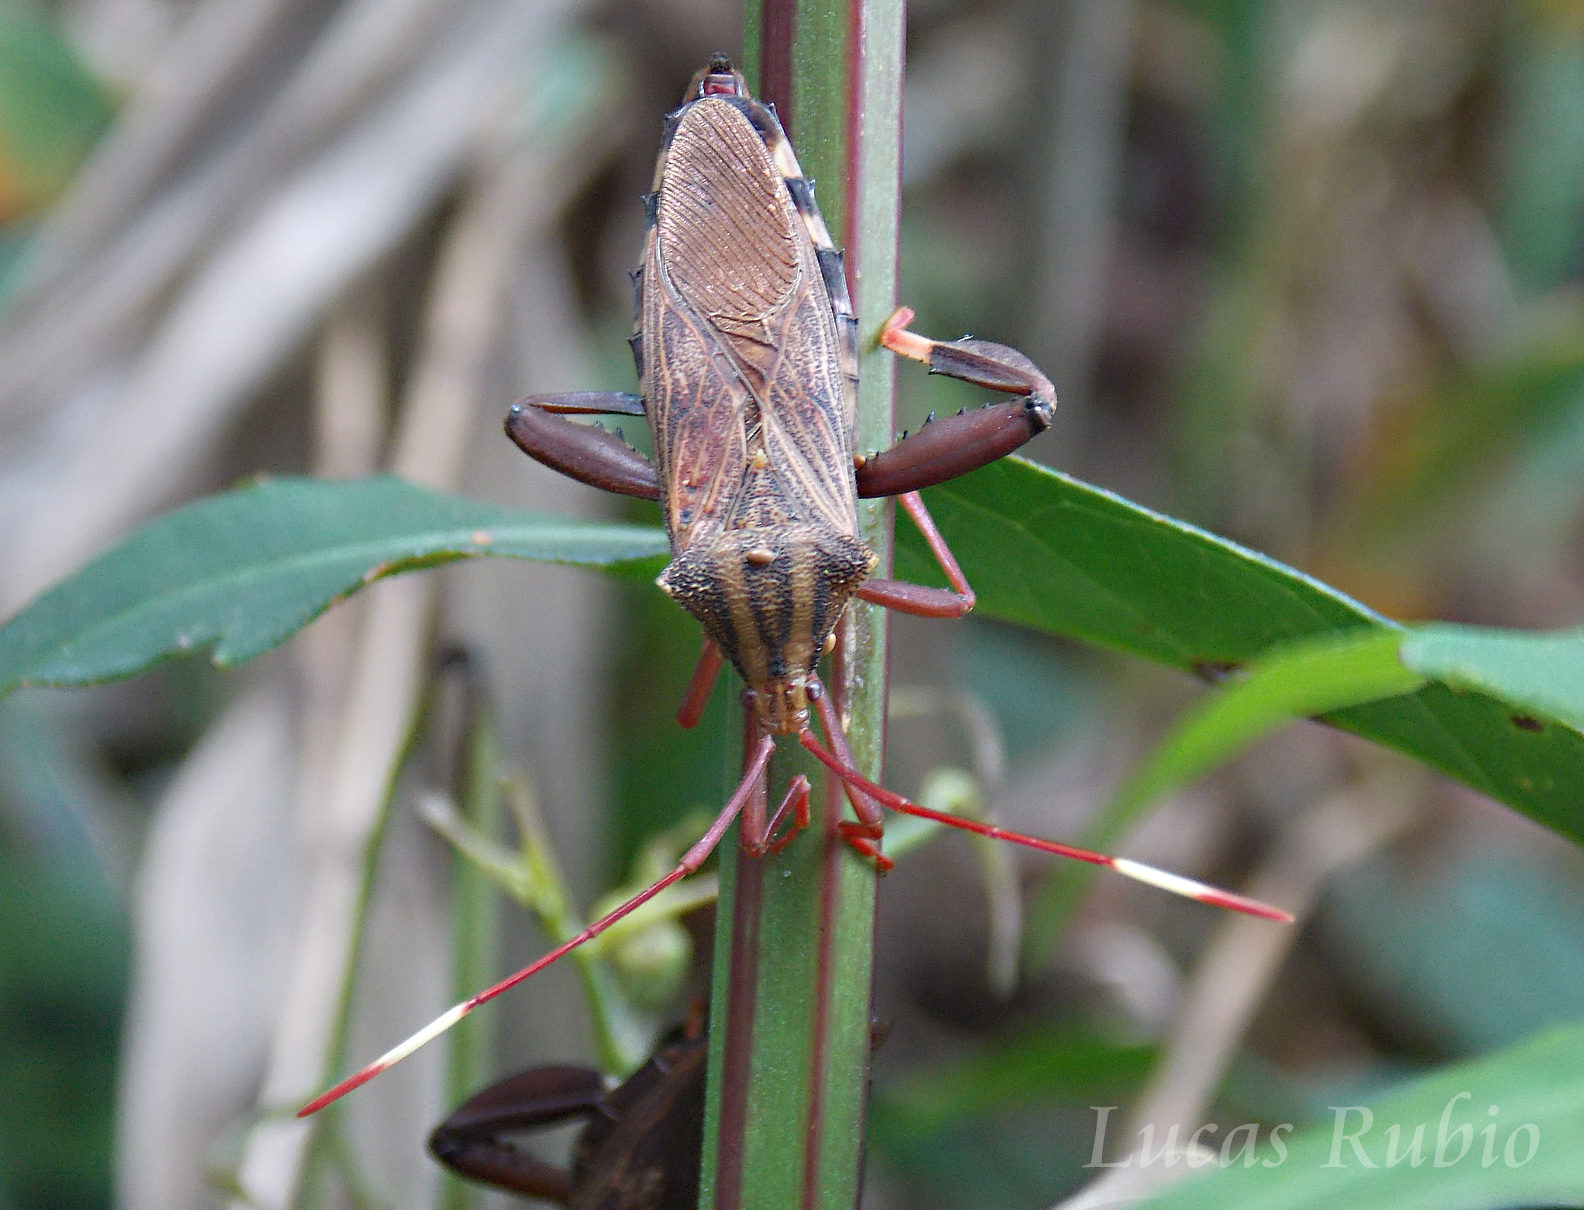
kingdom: Animalia
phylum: Arthropoda
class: Insecta
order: Hemiptera
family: Coreidae
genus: Melucha
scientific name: Melucha phyllocnemis
